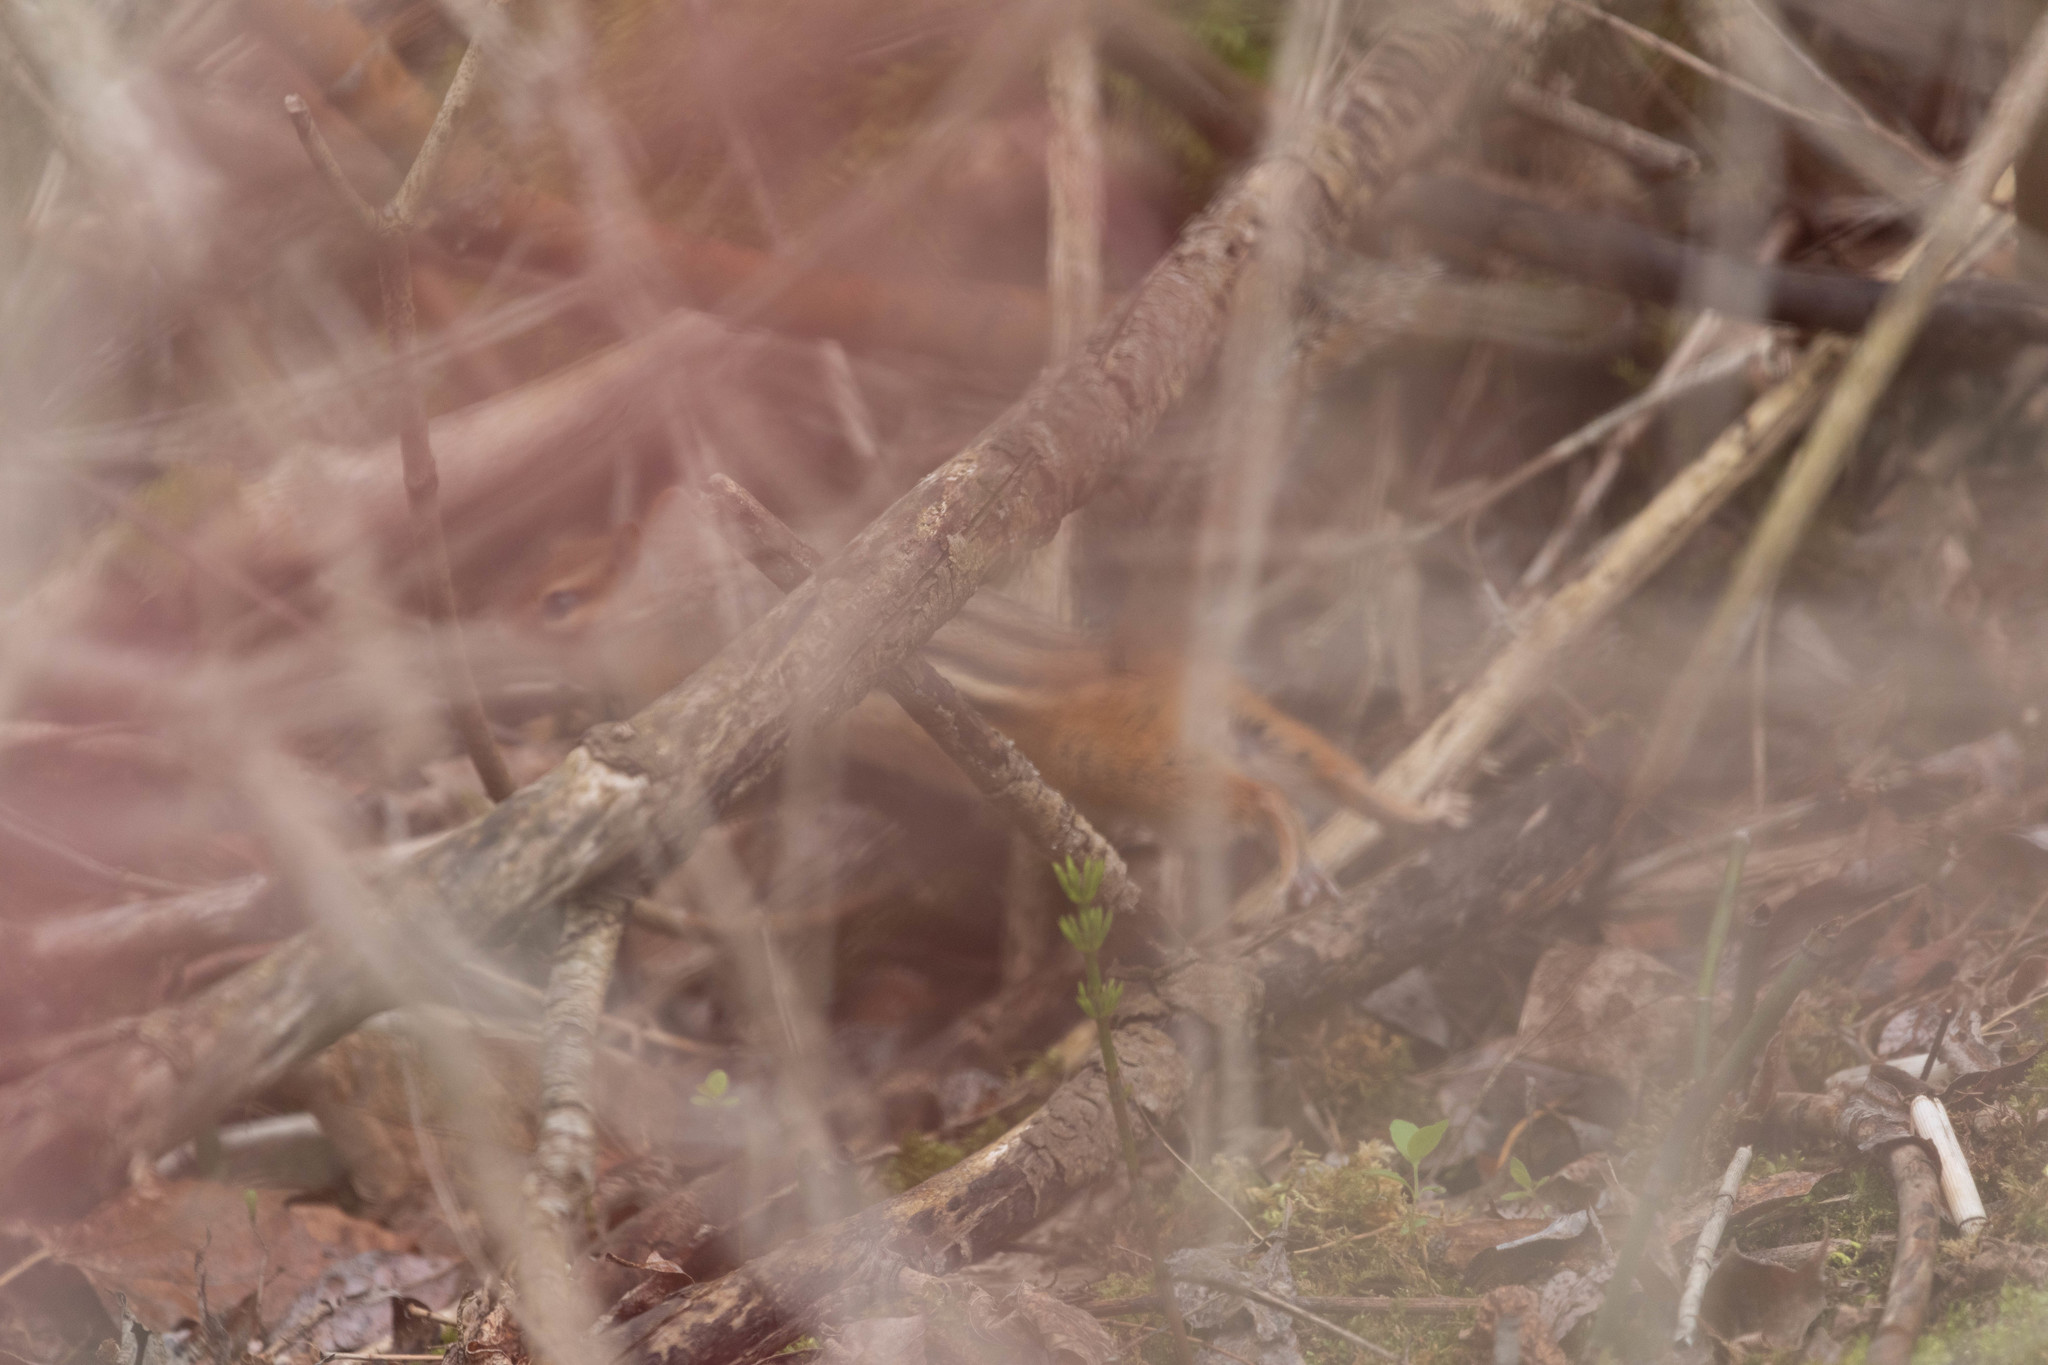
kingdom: Animalia
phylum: Chordata
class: Mammalia
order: Rodentia
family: Sciuridae
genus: Tamias
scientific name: Tamias striatus
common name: Eastern chipmunk
